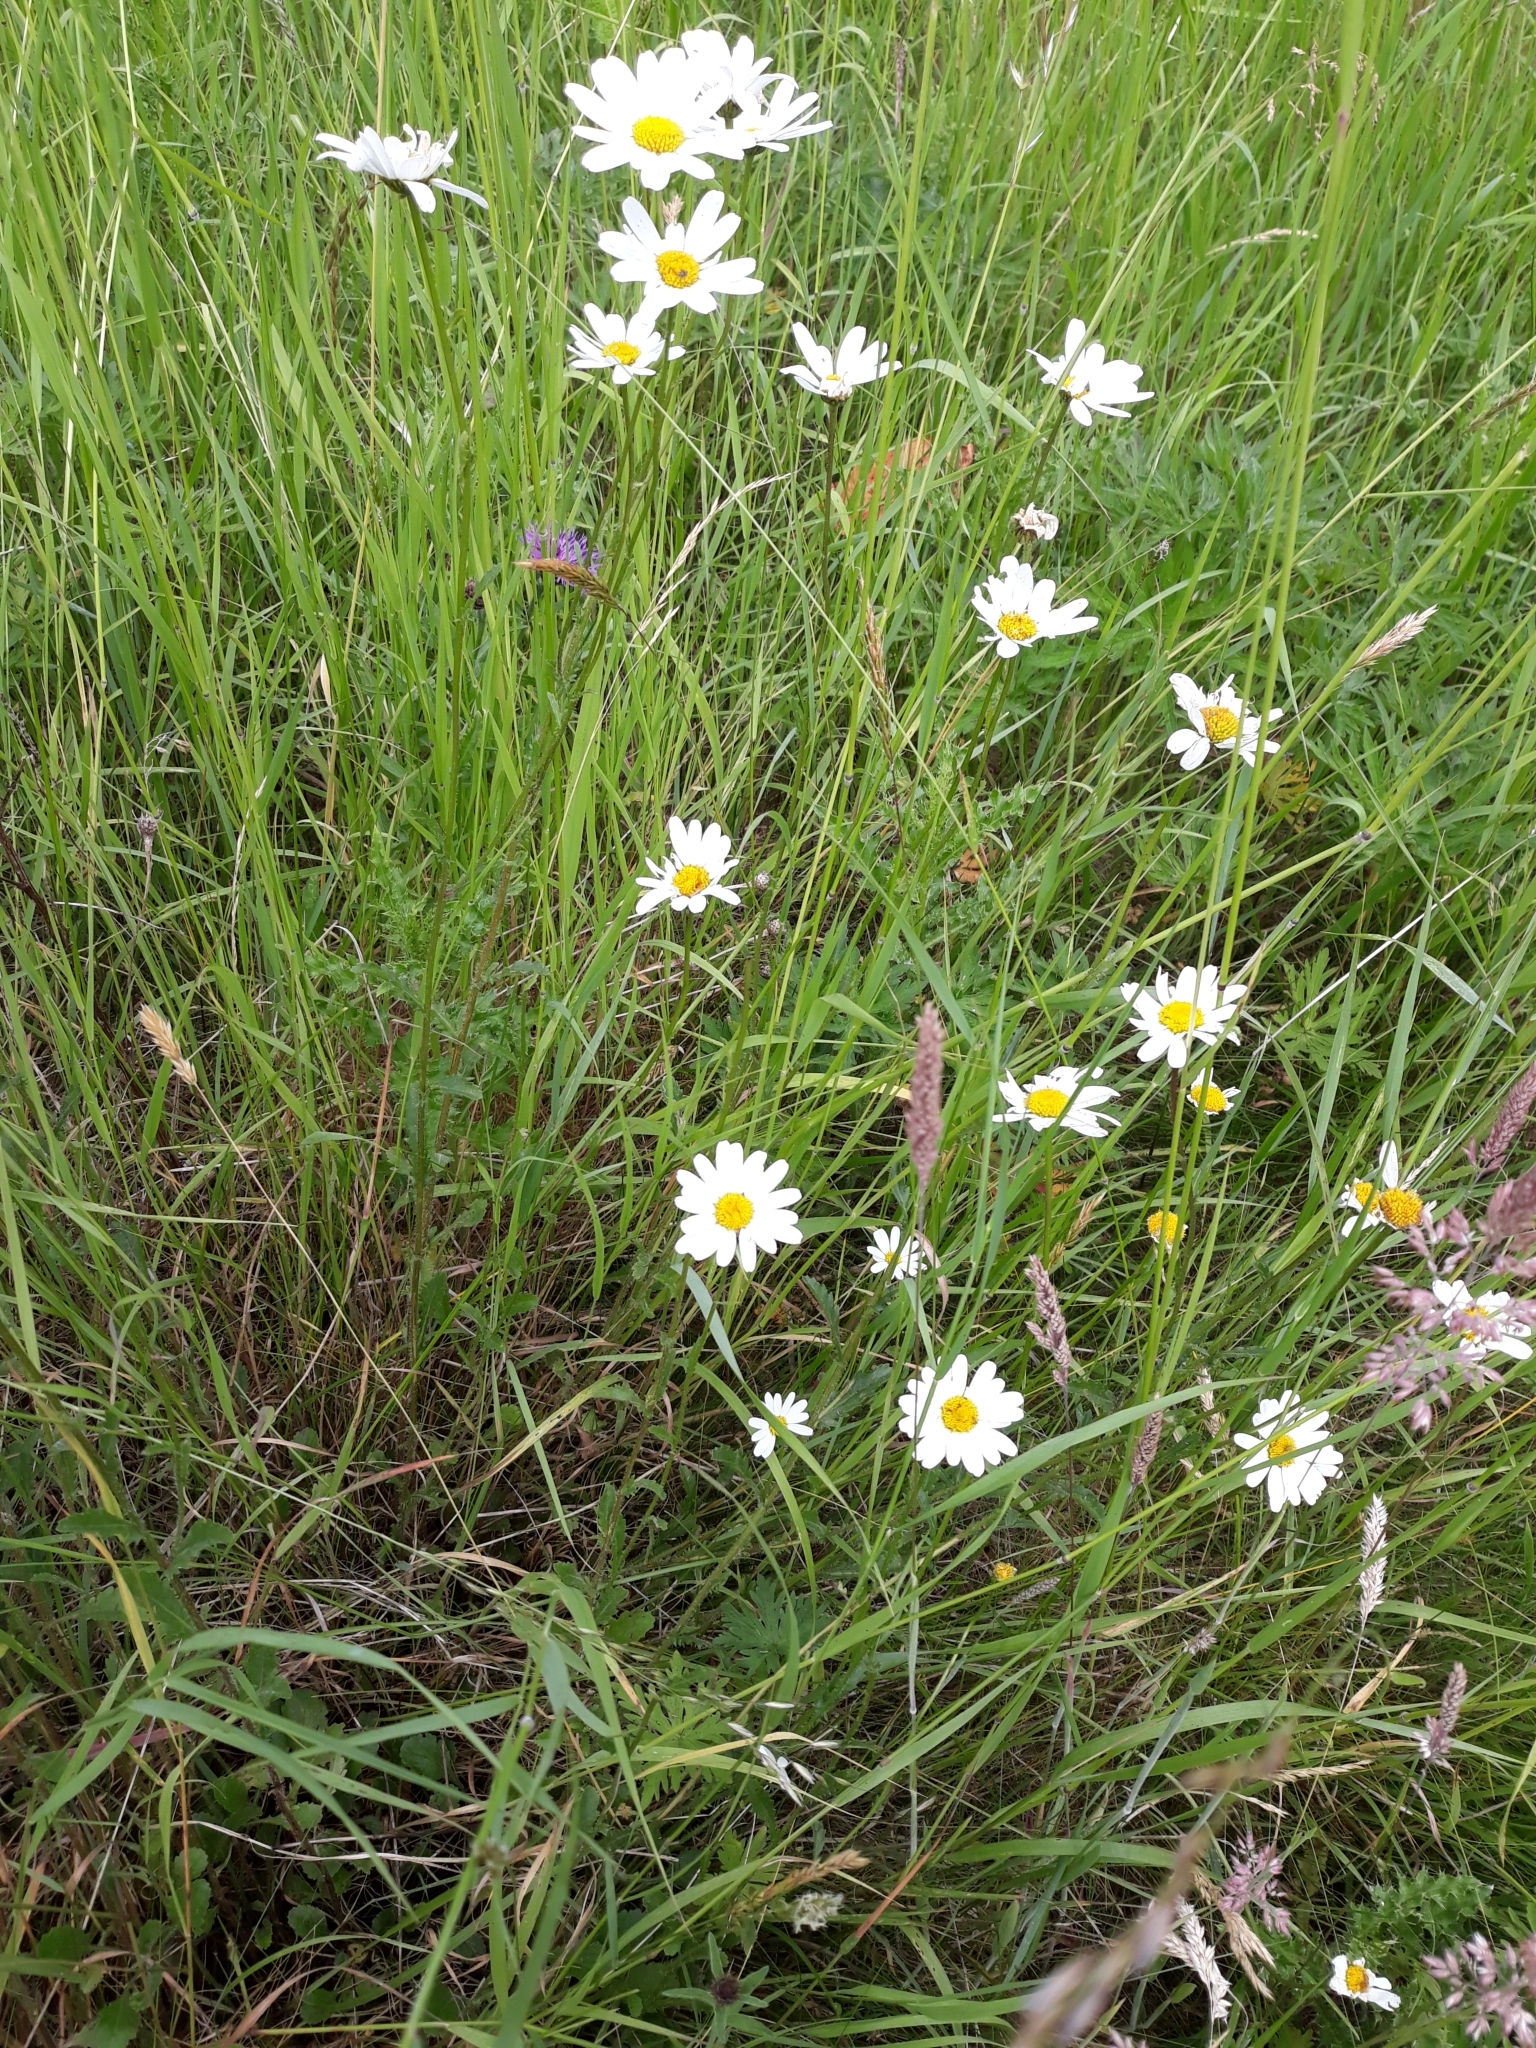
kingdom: Plantae
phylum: Tracheophyta
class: Magnoliopsida
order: Asterales
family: Asteraceae
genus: Leucanthemum
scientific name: Leucanthemum vulgare
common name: Oxeye daisy
